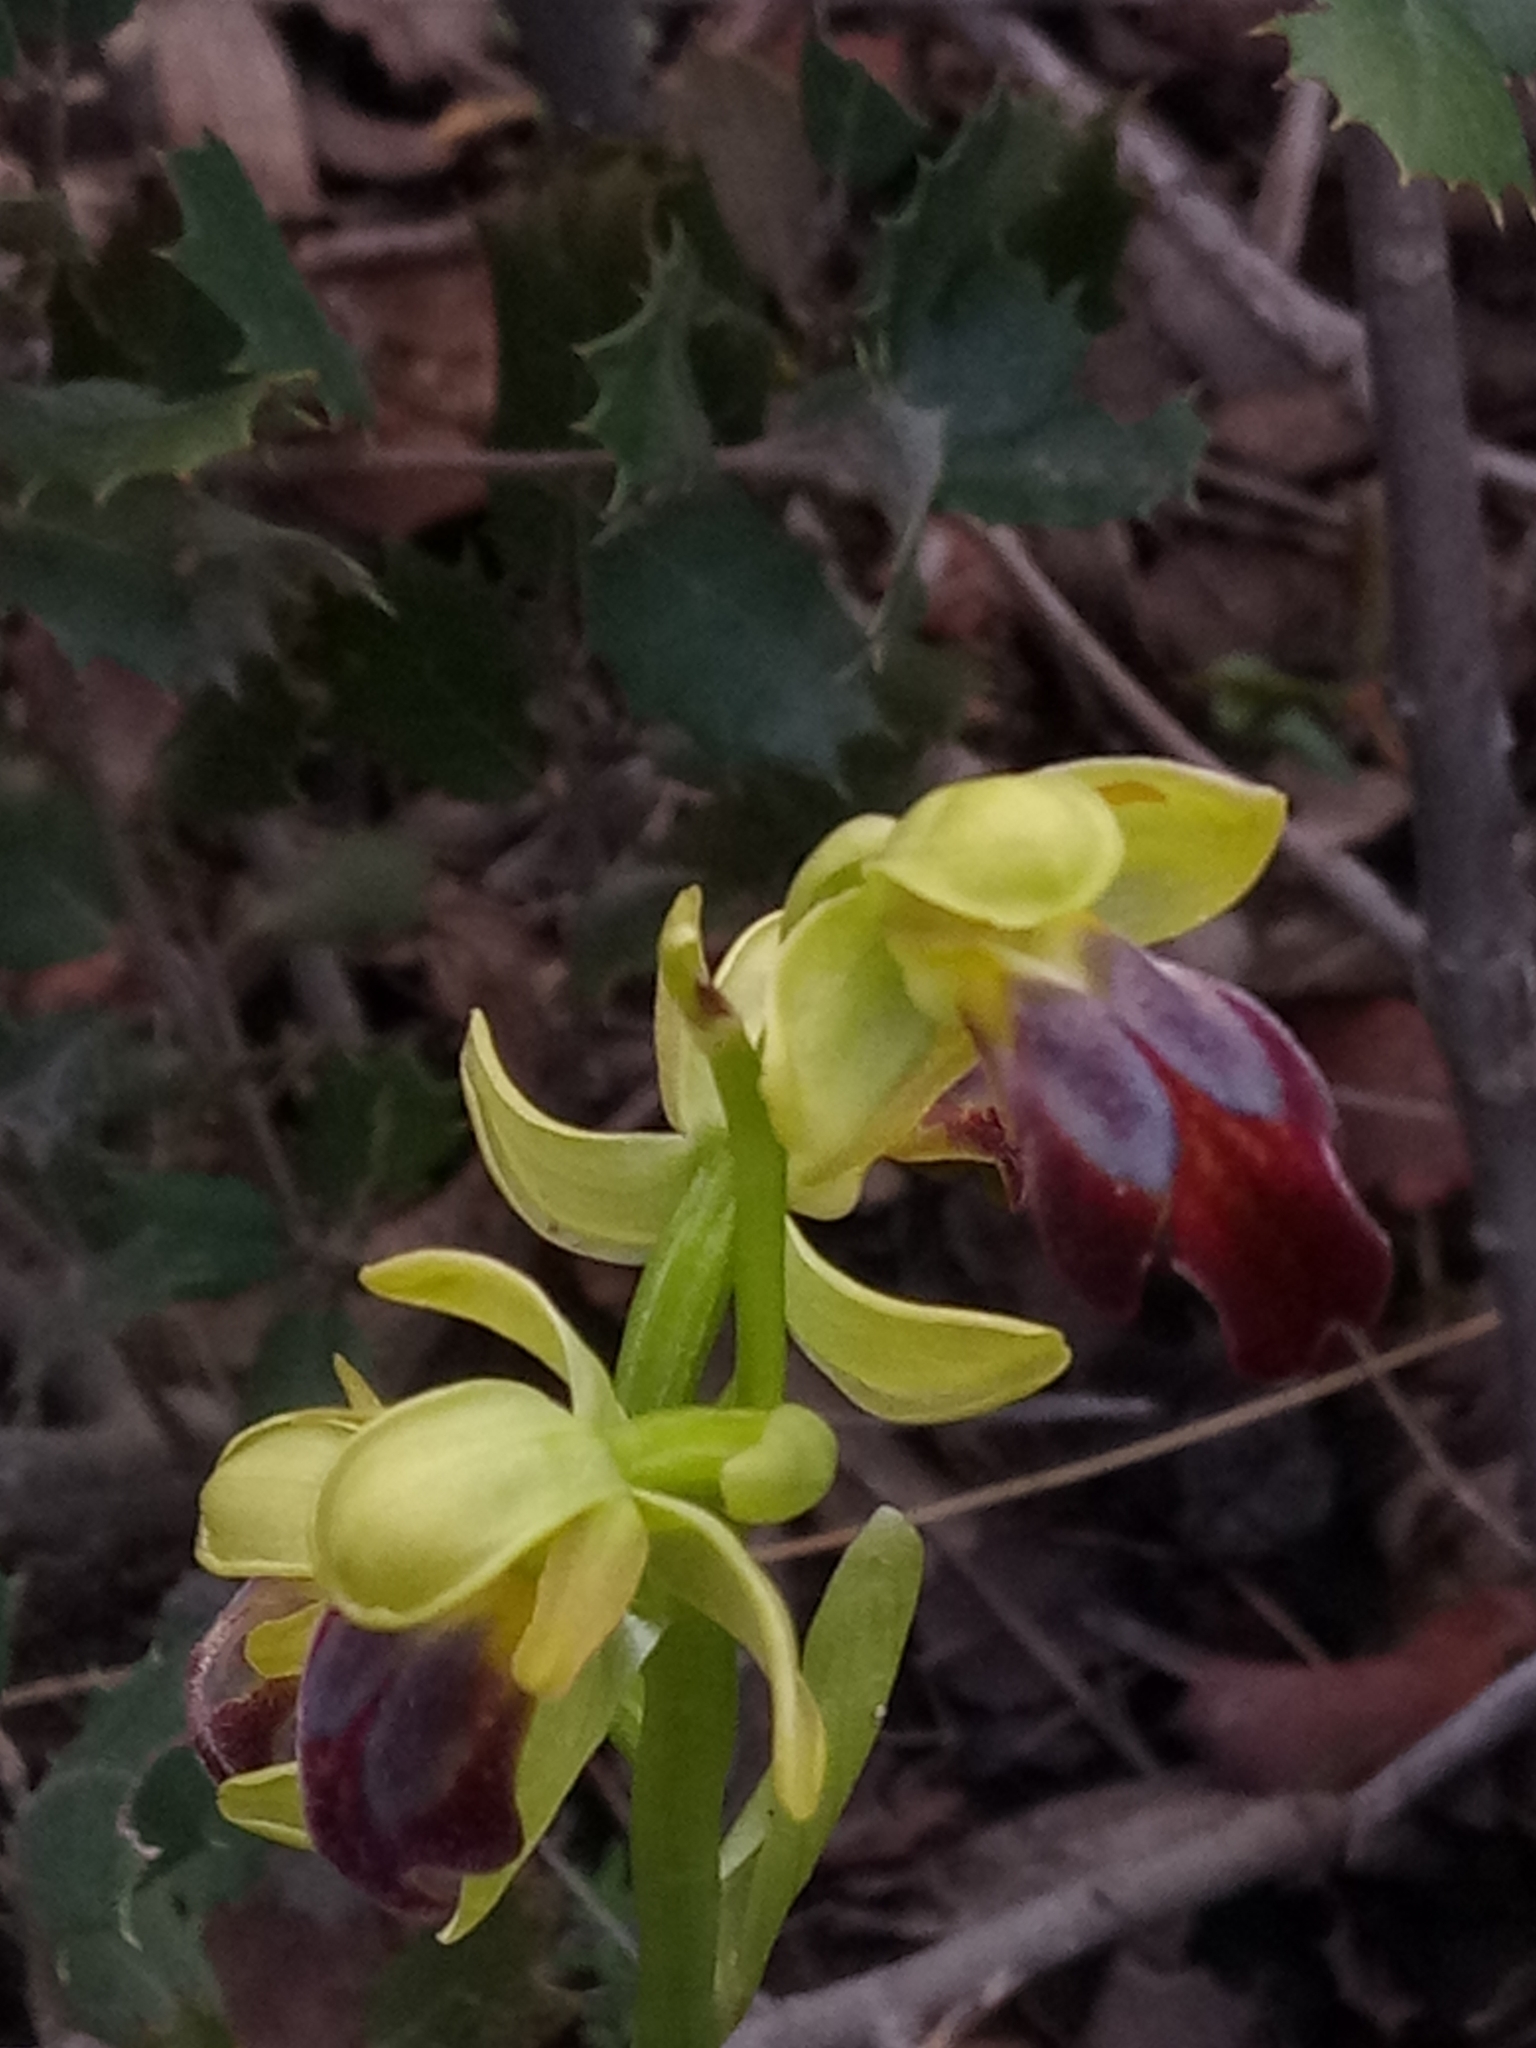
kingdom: Plantae
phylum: Tracheophyta
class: Liliopsida
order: Asparagales
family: Orchidaceae
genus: Ophrys
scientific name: Ophrys fusca
